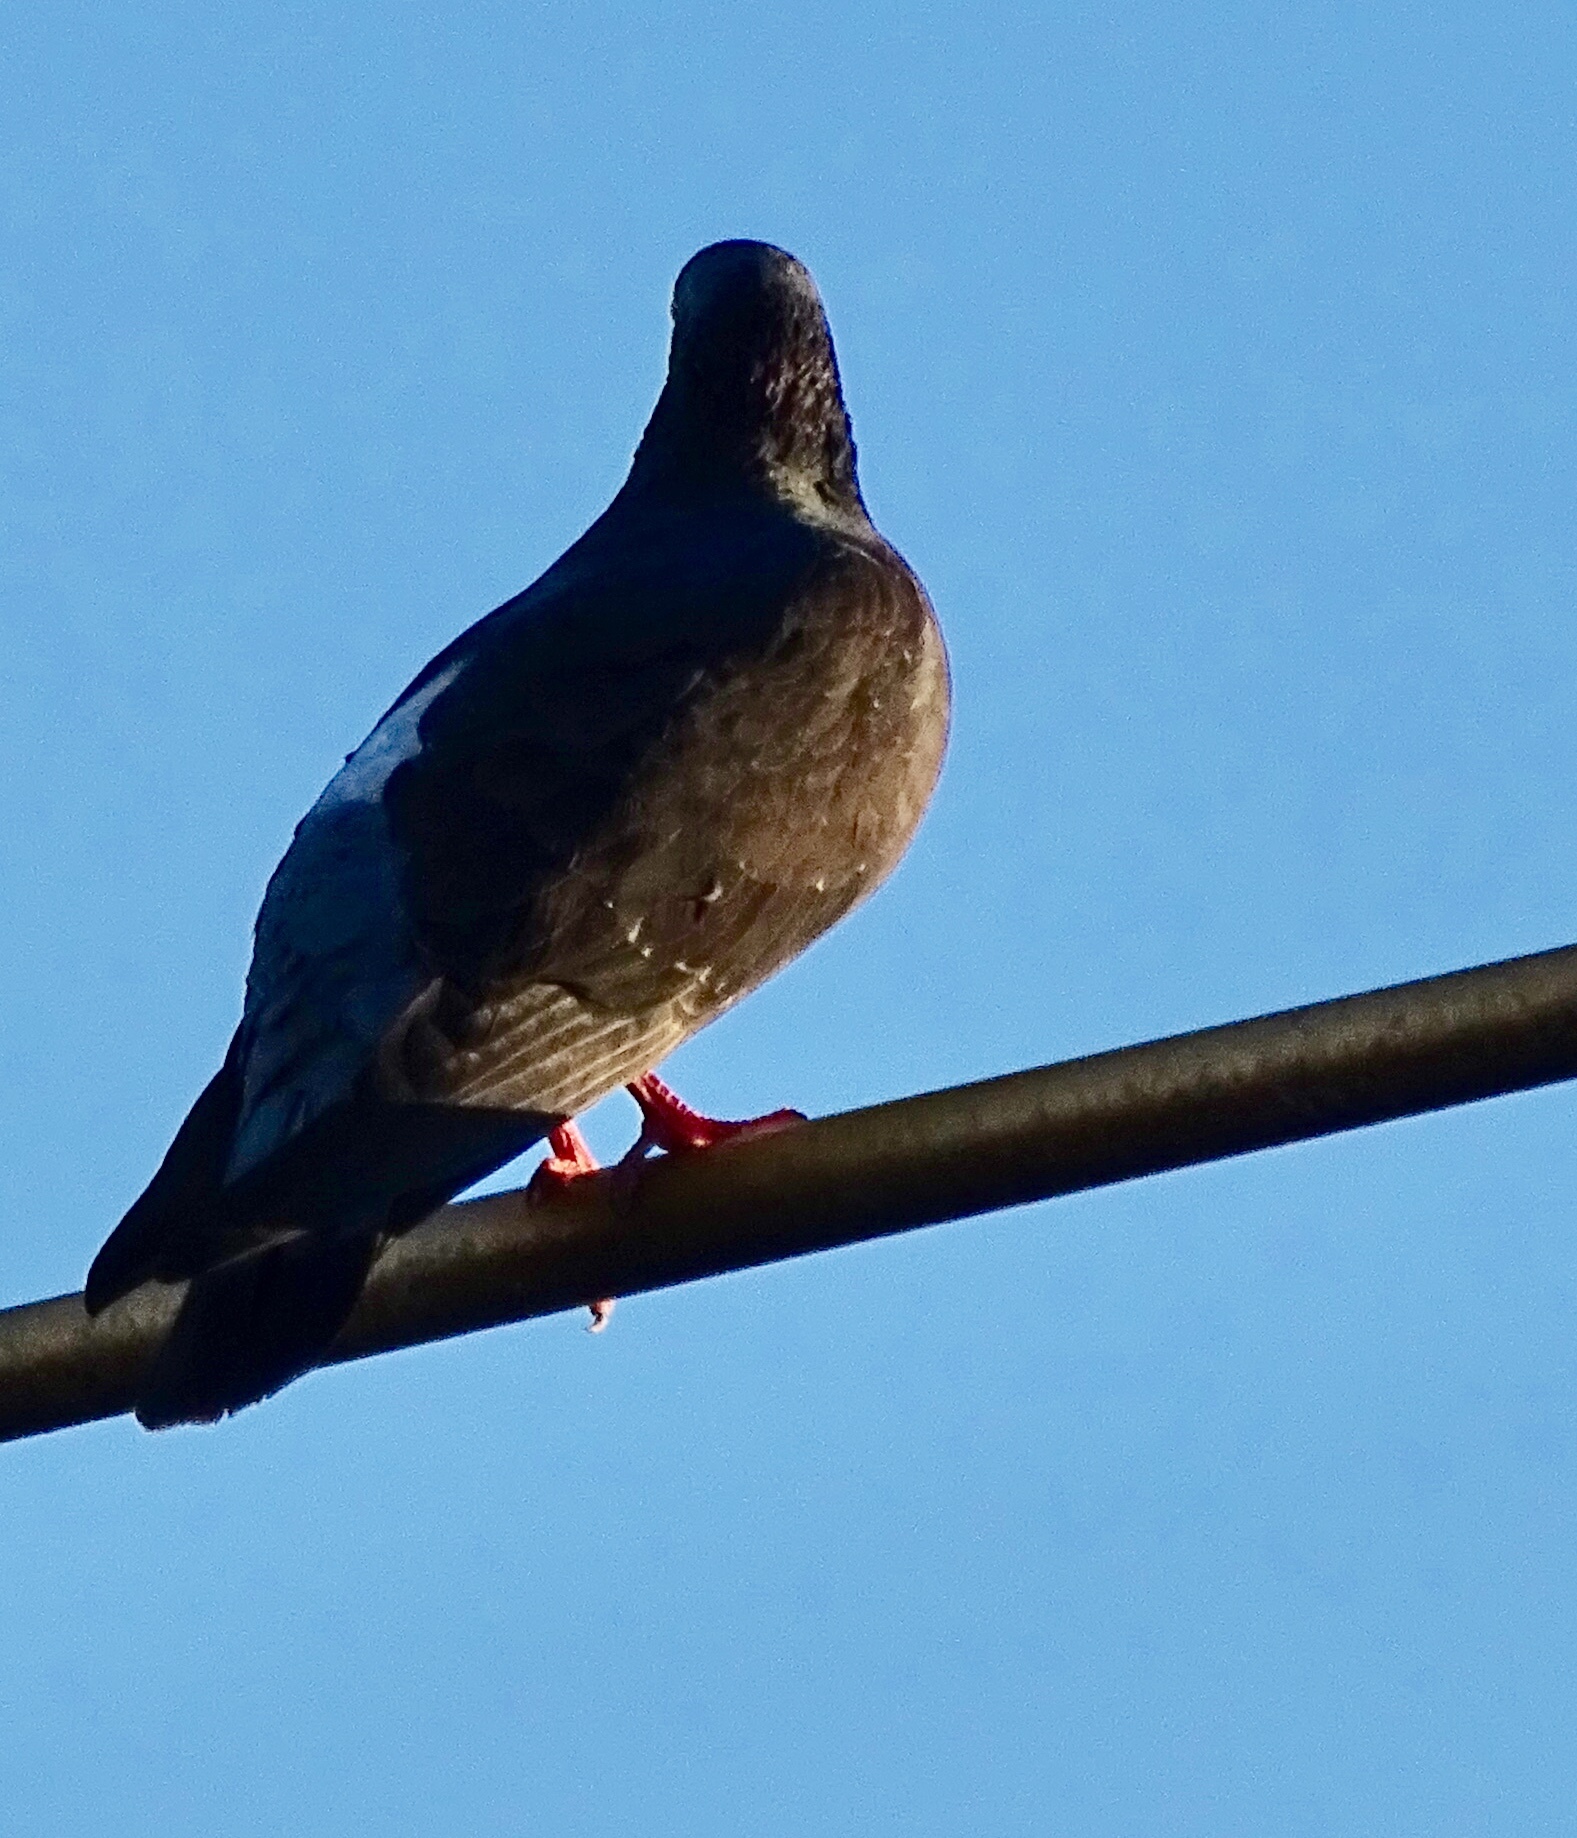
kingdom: Animalia
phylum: Chordata
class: Aves
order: Columbiformes
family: Columbidae
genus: Columba
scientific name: Columba livia
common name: Rock pigeon
